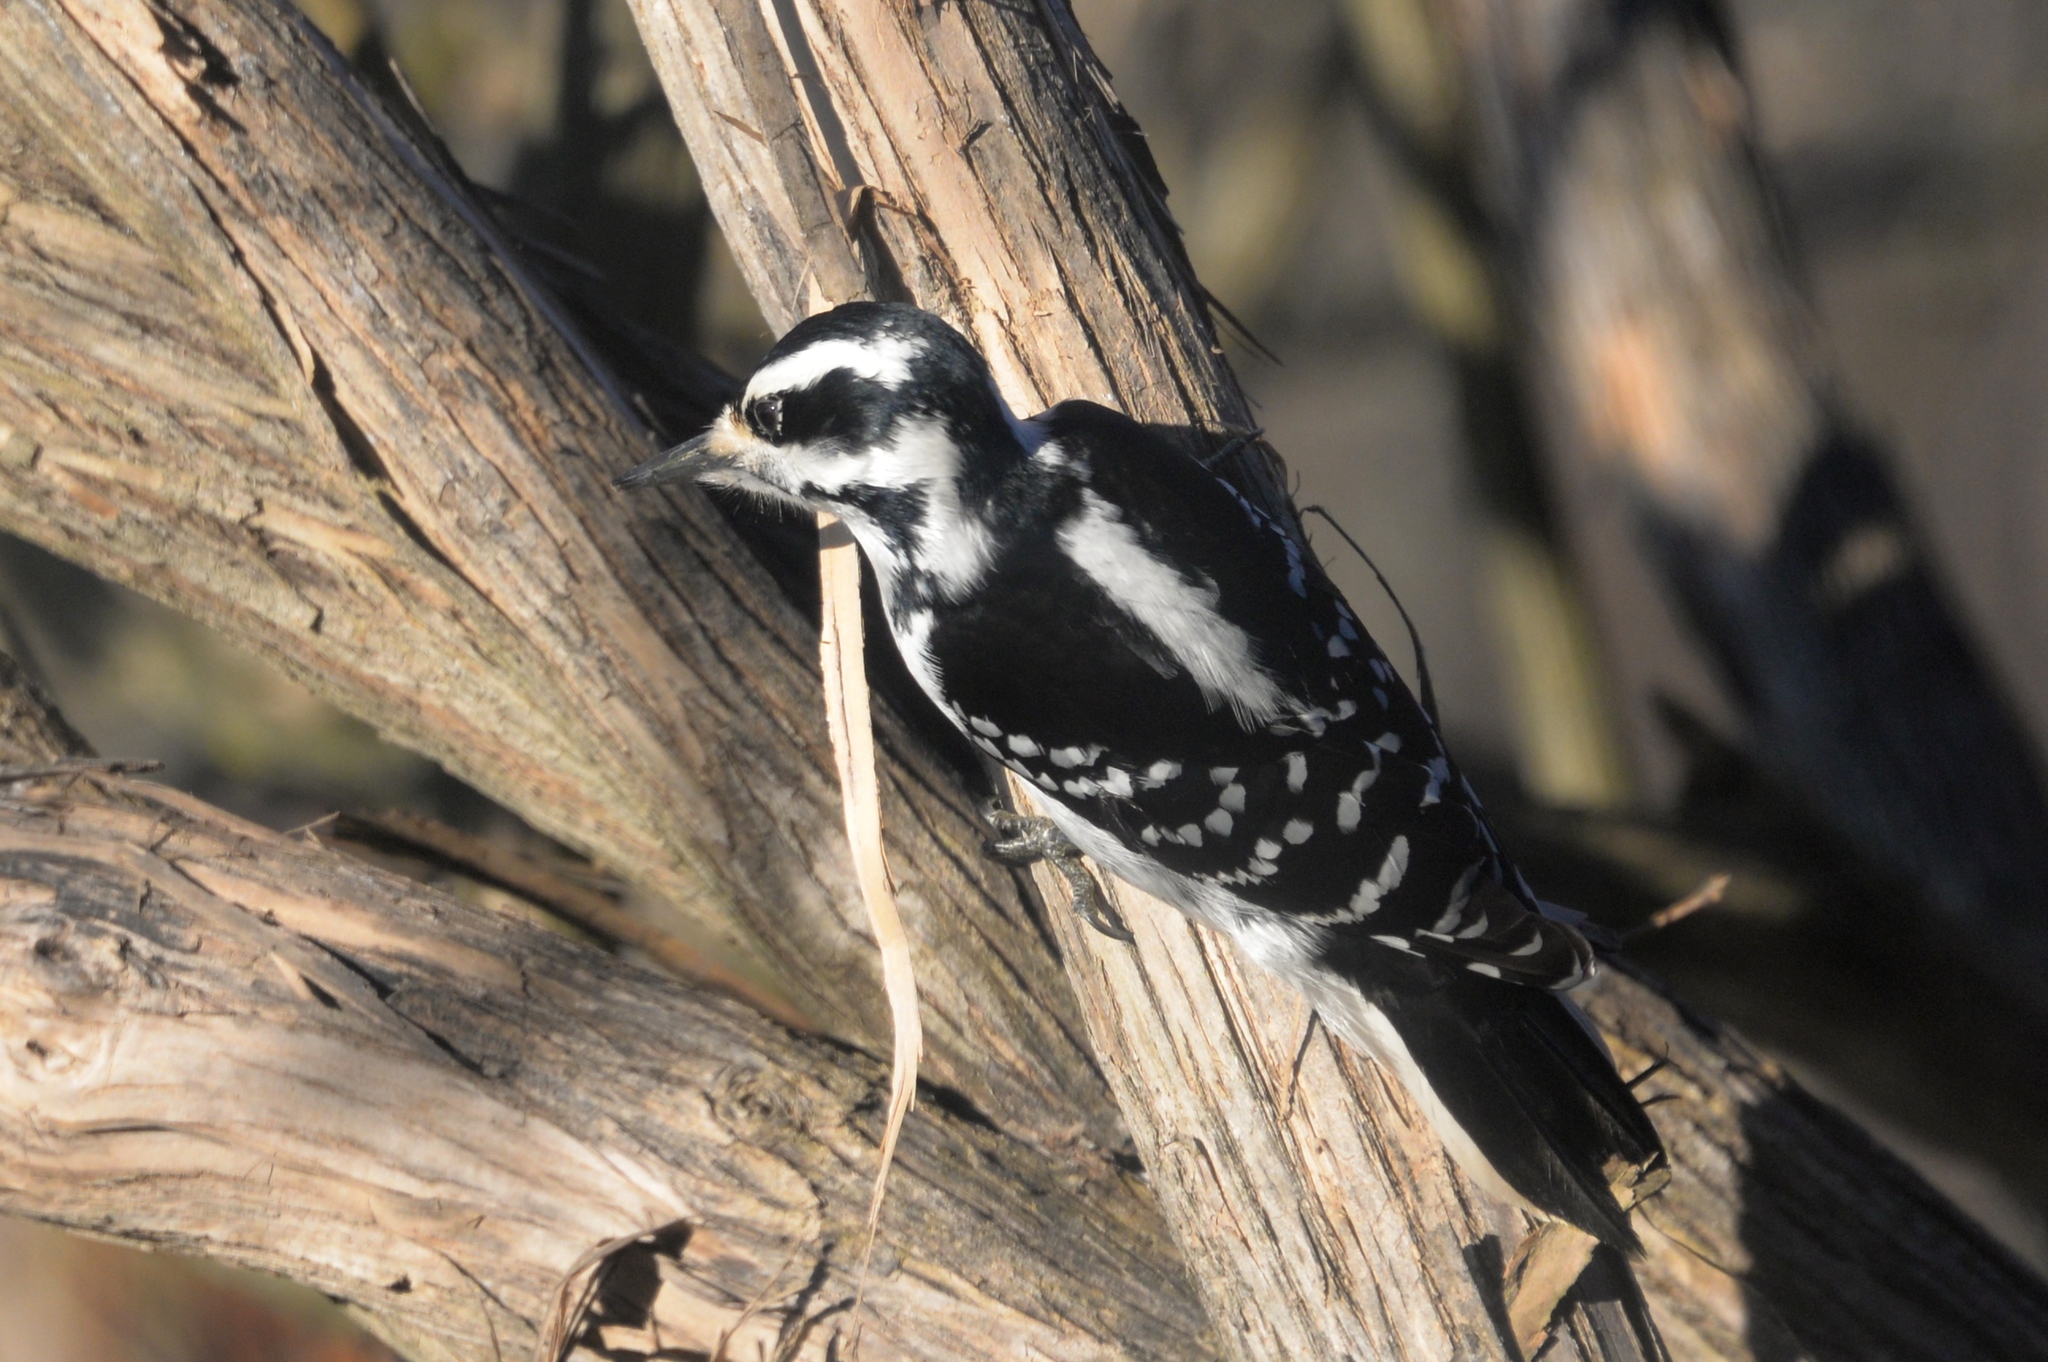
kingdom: Animalia
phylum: Chordata
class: Aves
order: Piciformes
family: Picidae
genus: Leuconotopicus
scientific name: Leuconotopicus villosus
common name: Hairy woodpecker
